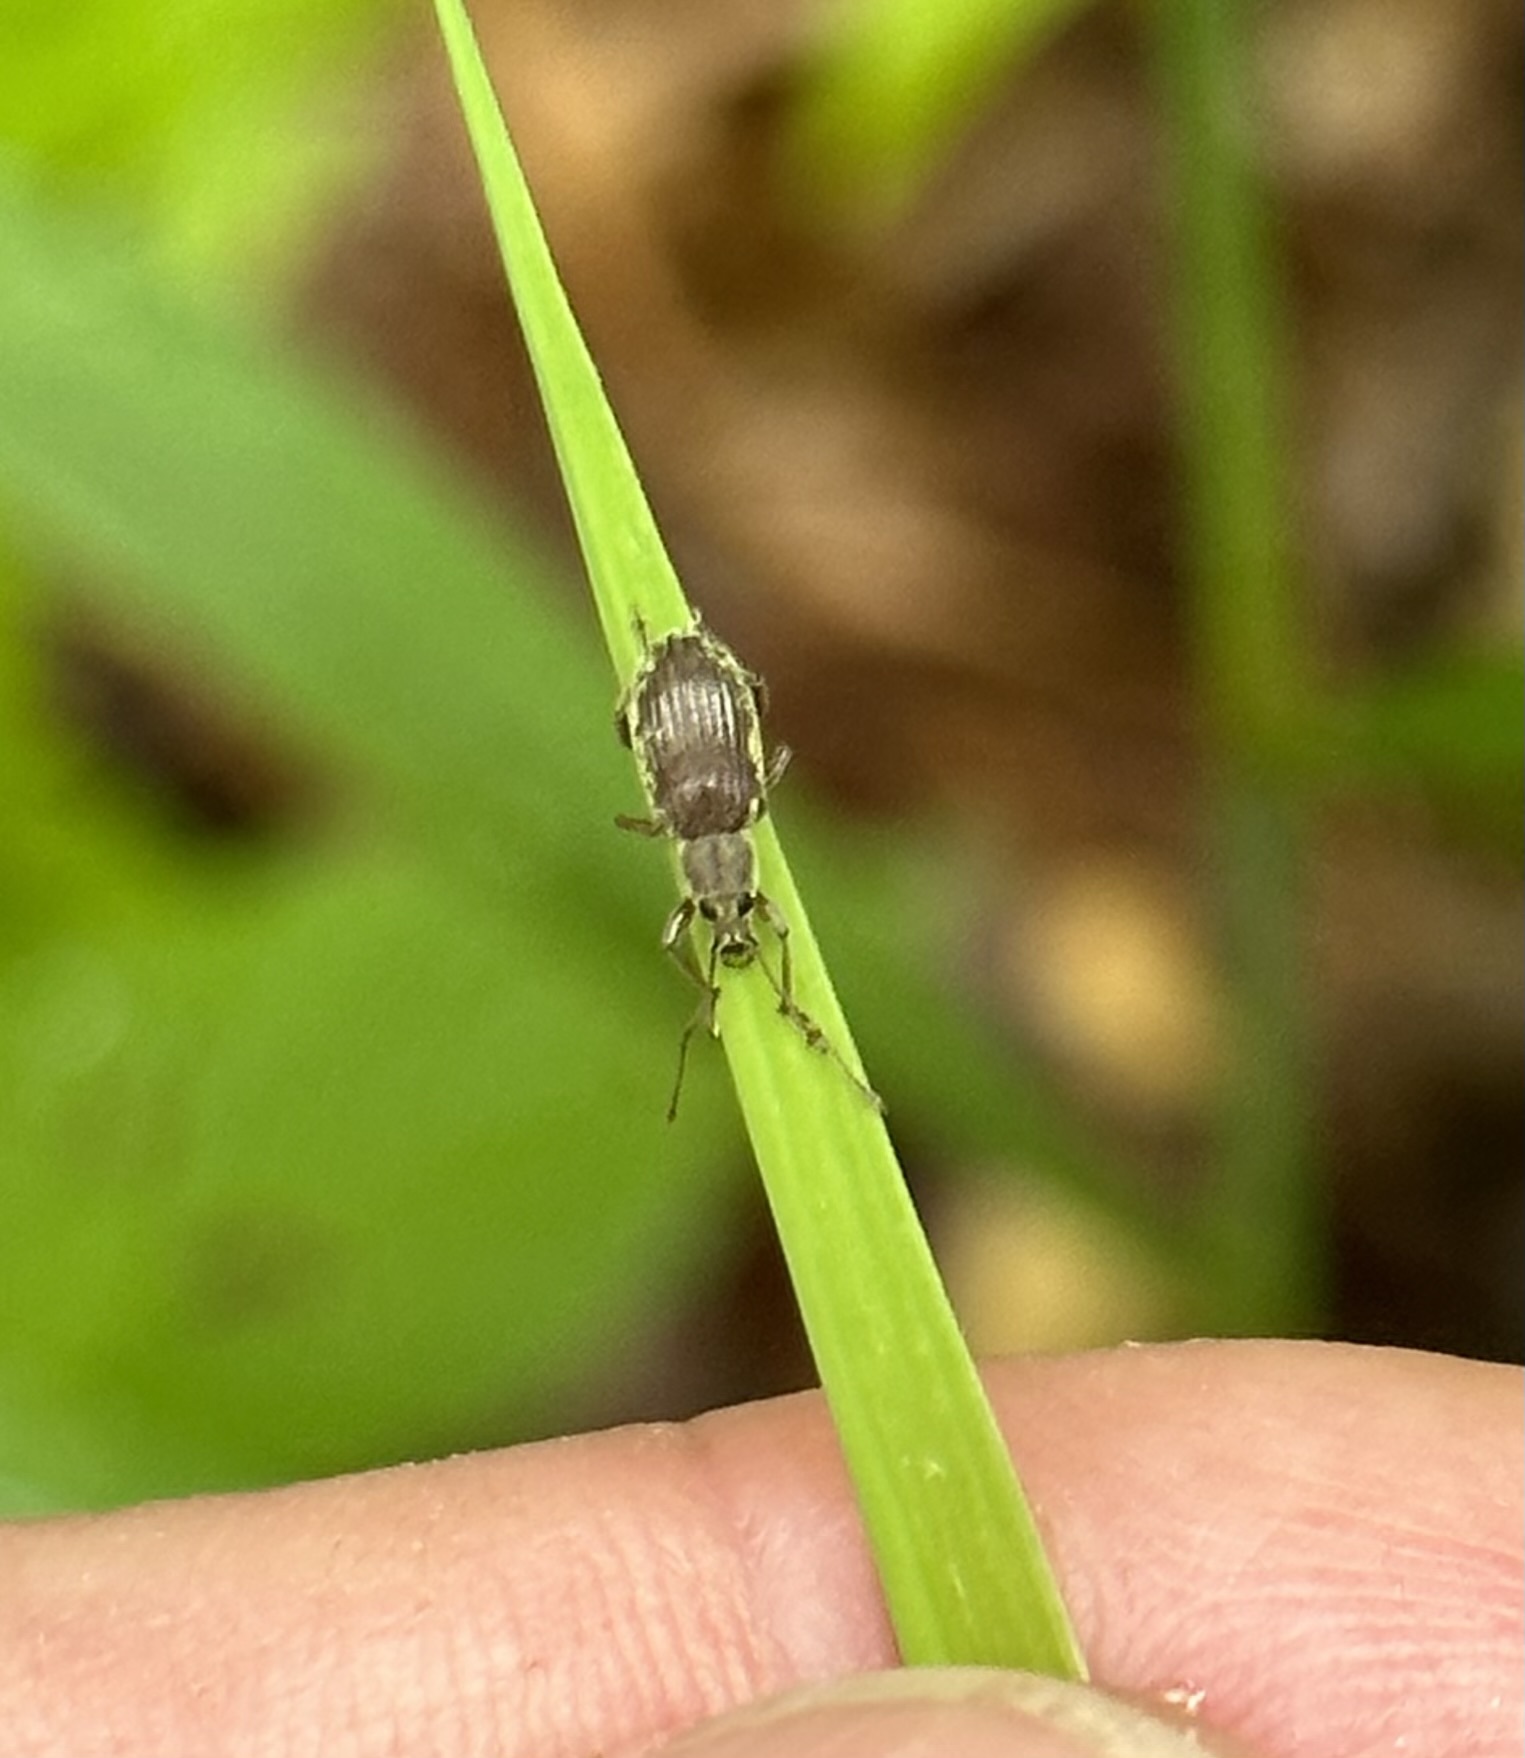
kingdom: Animalia
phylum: Arthropoda
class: Insecta
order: Coleoptera
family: Curculionidae
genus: Cyrtepistomus
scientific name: Cyrtepistomus castaneus
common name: Weevil
